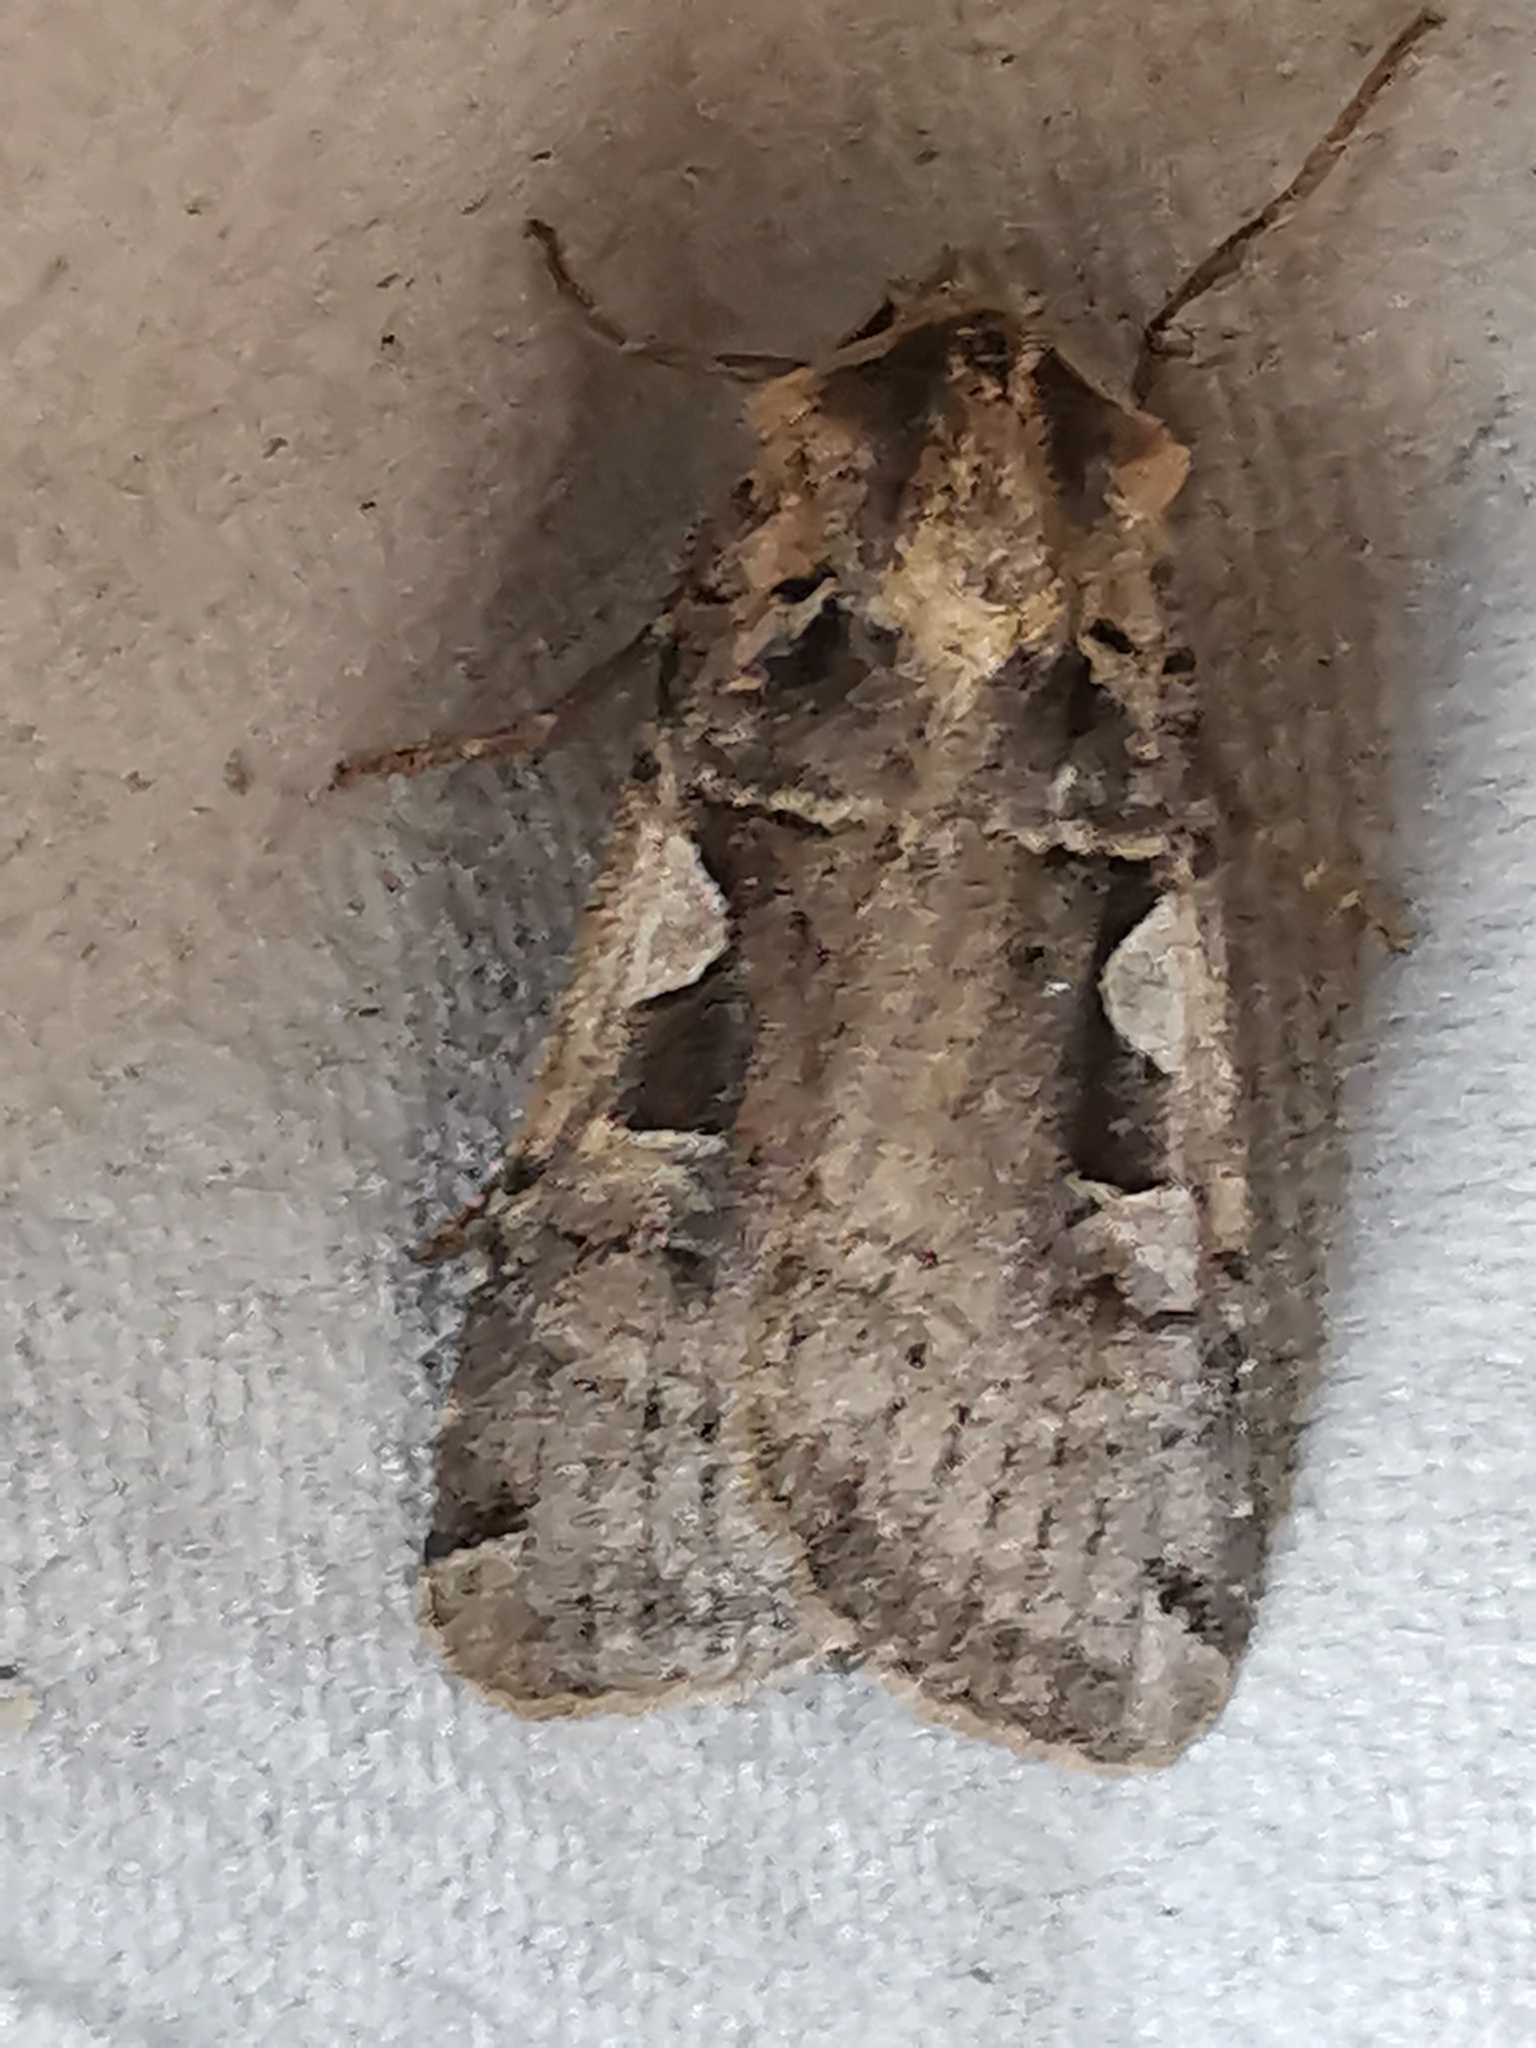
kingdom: Animalia
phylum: Arthropoda
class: Insecta
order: Lepidoptera
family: Noctuidae
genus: Xestia
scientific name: Xestia c-nigrum
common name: Setaceous hebrew character
